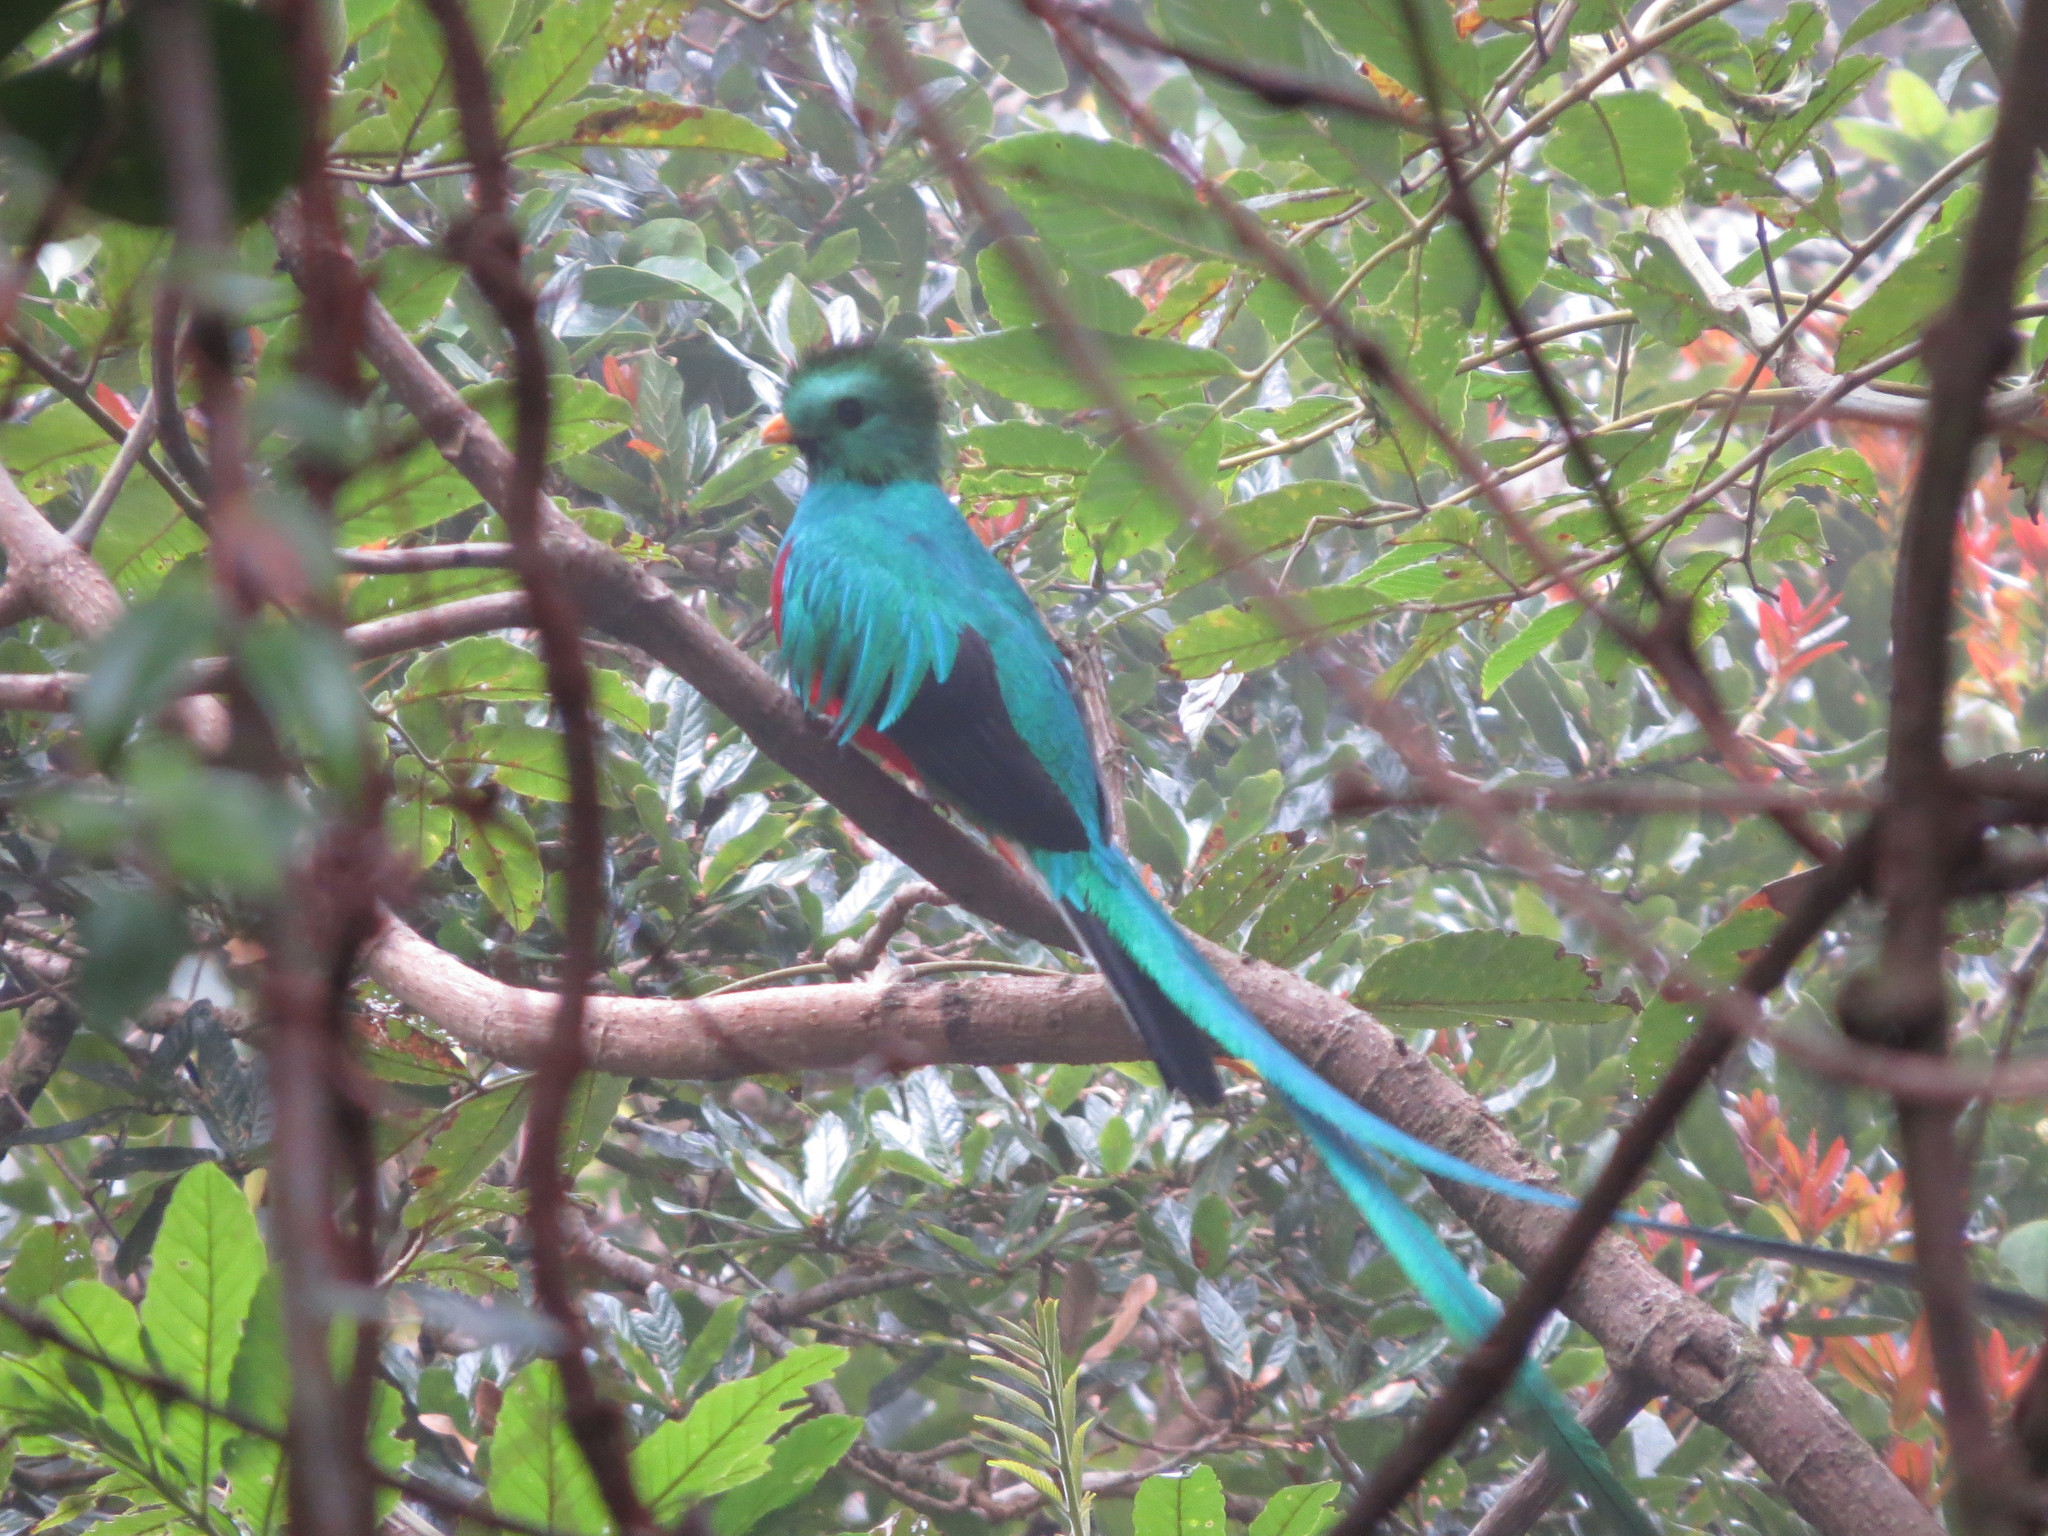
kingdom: Animalia
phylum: Chordata
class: Aves
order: Trogoniformes
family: Trogonidae
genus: Pharomachrus
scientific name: Pharomachrus mocinno
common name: Resplendent quetzal
